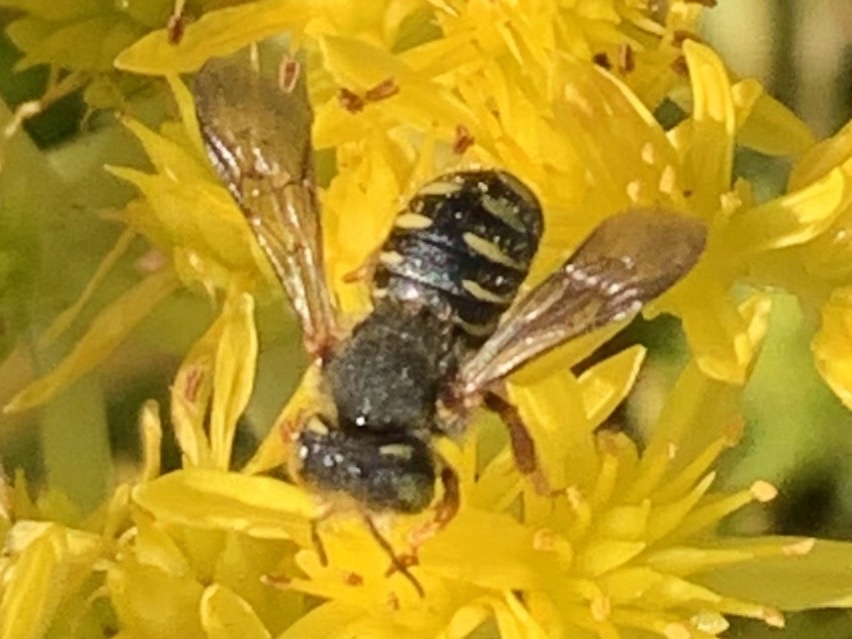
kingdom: Animalia
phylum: Arthropoda
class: Insecta
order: Hymenoptera
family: Megachilidae
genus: Anthidium
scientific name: Anthidium oblongatum
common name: Oblong wool carder bee
